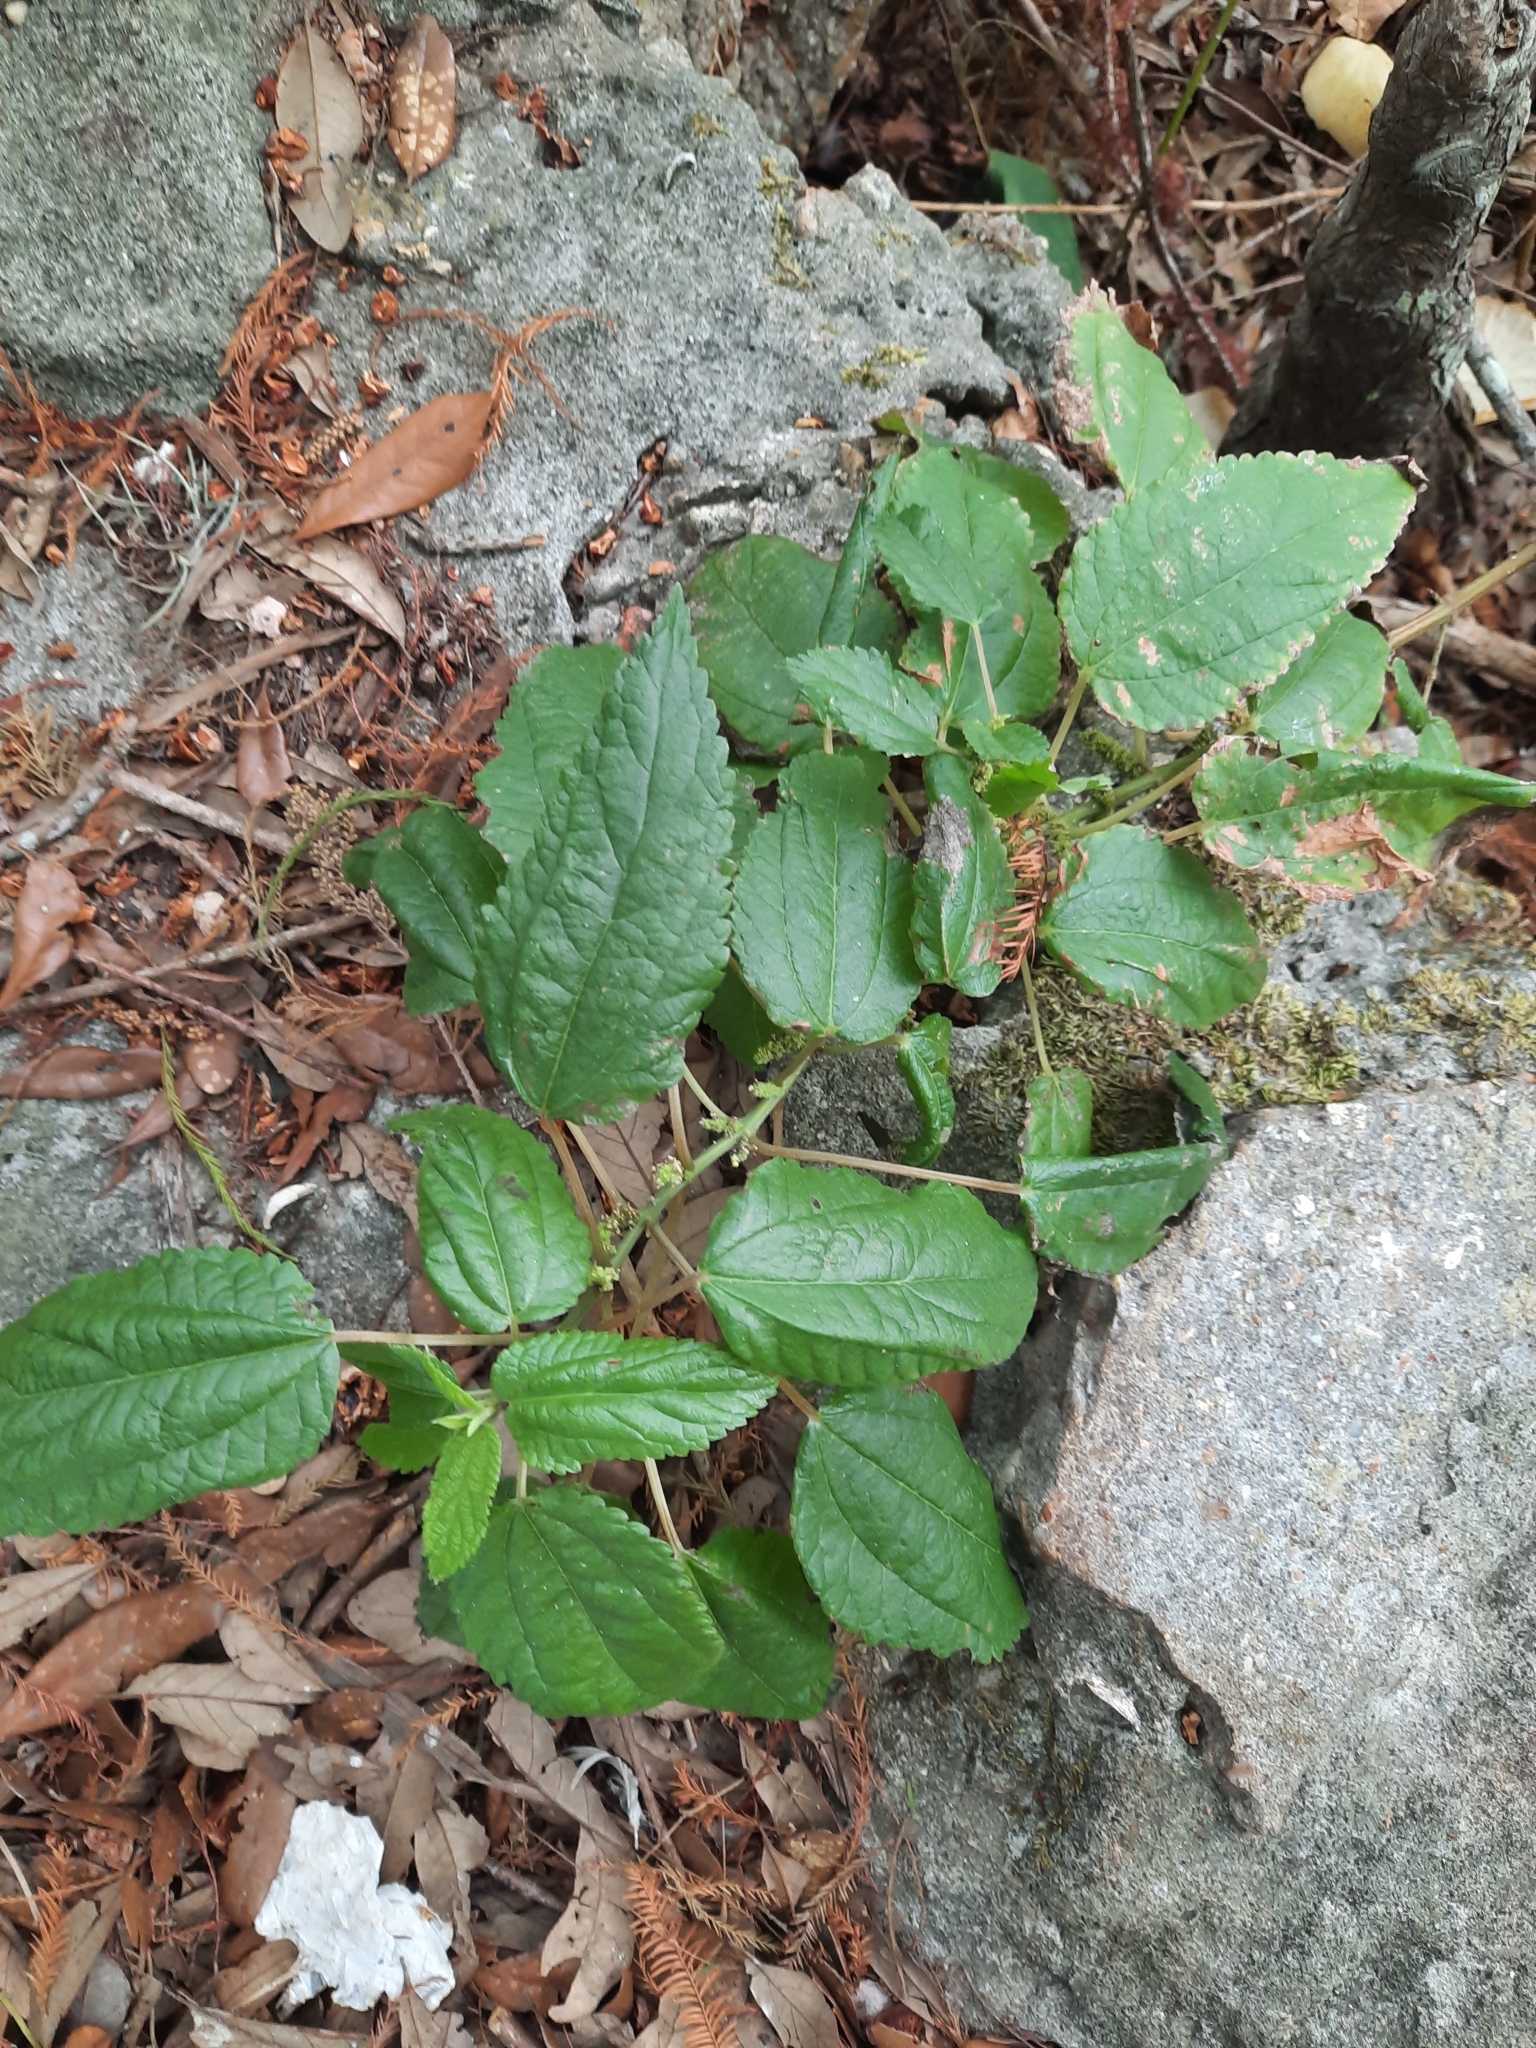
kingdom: Plantae
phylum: Tracheophyta
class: Magnoliopsida
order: Rosales
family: Urticaceae
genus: Boehmeria
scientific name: Boehmeria cylindrica
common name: Bog-hemp
